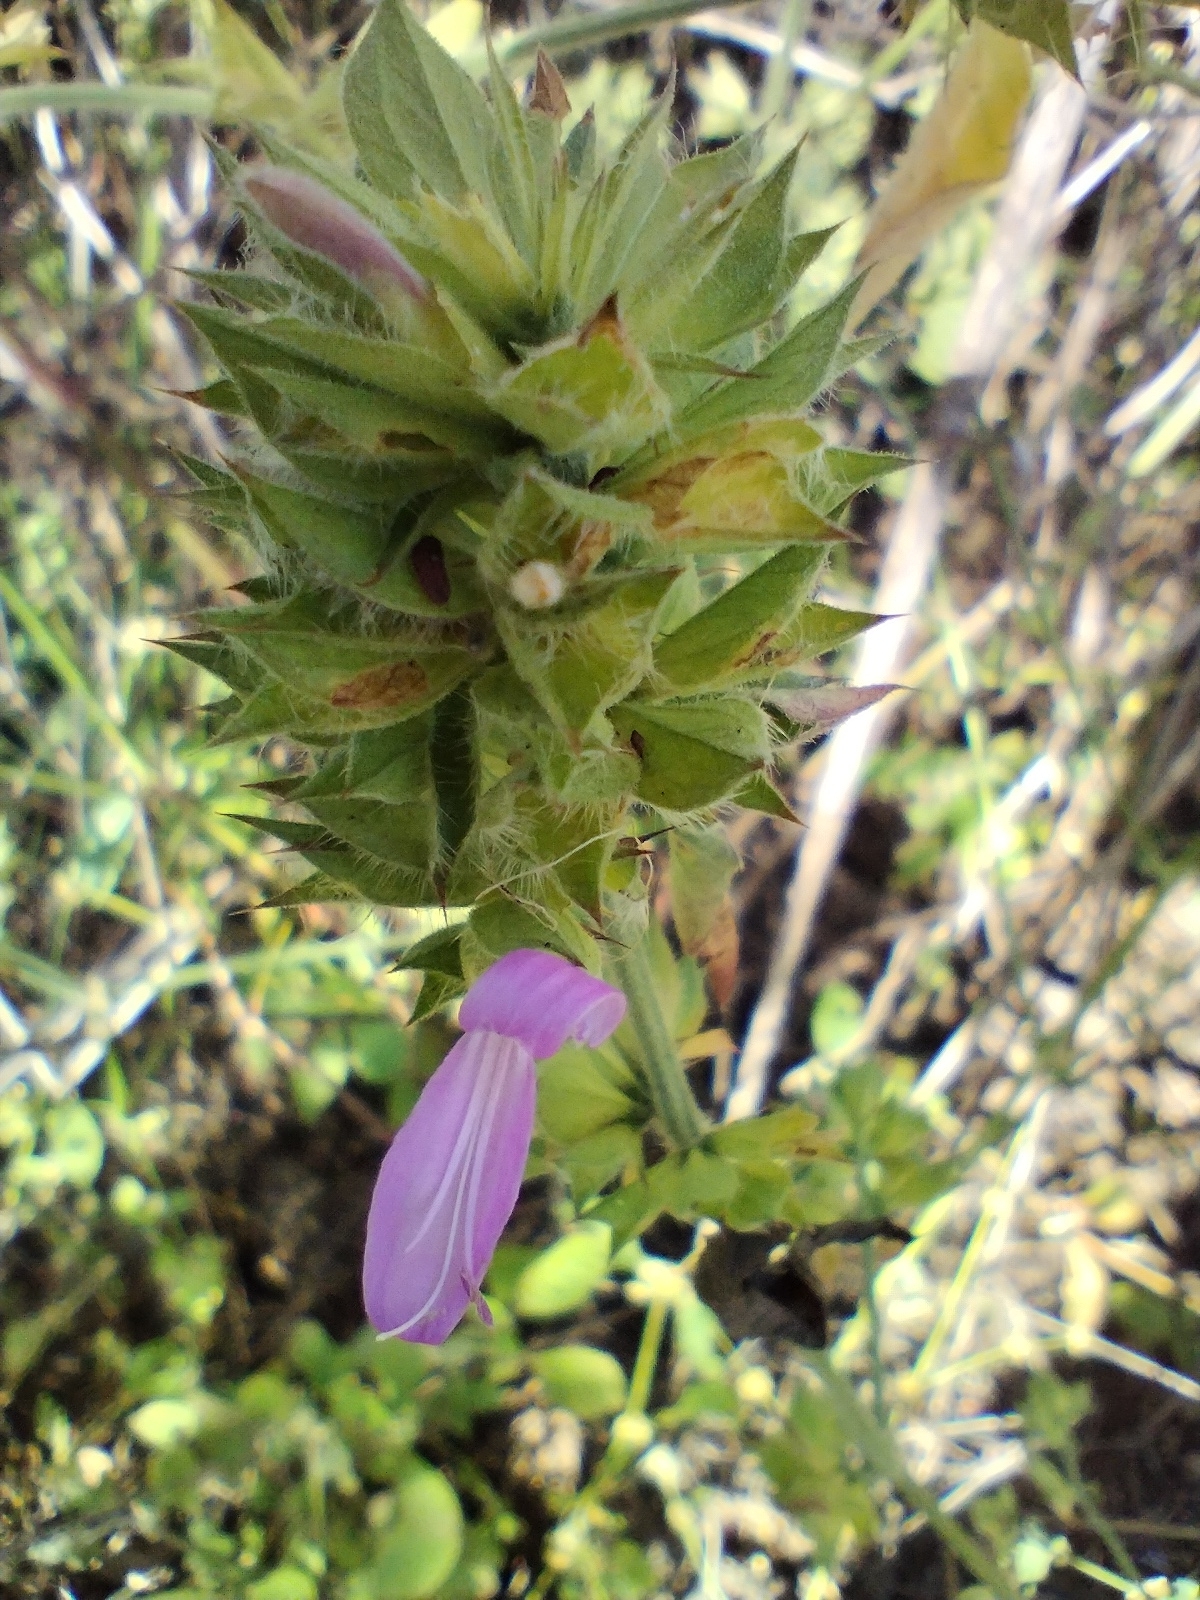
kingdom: Plantae
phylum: Tracheophyta
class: Magnoliopsida
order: Lamiales
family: Acanthaceae
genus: Dicliptera
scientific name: Dicliptera ciliaris
